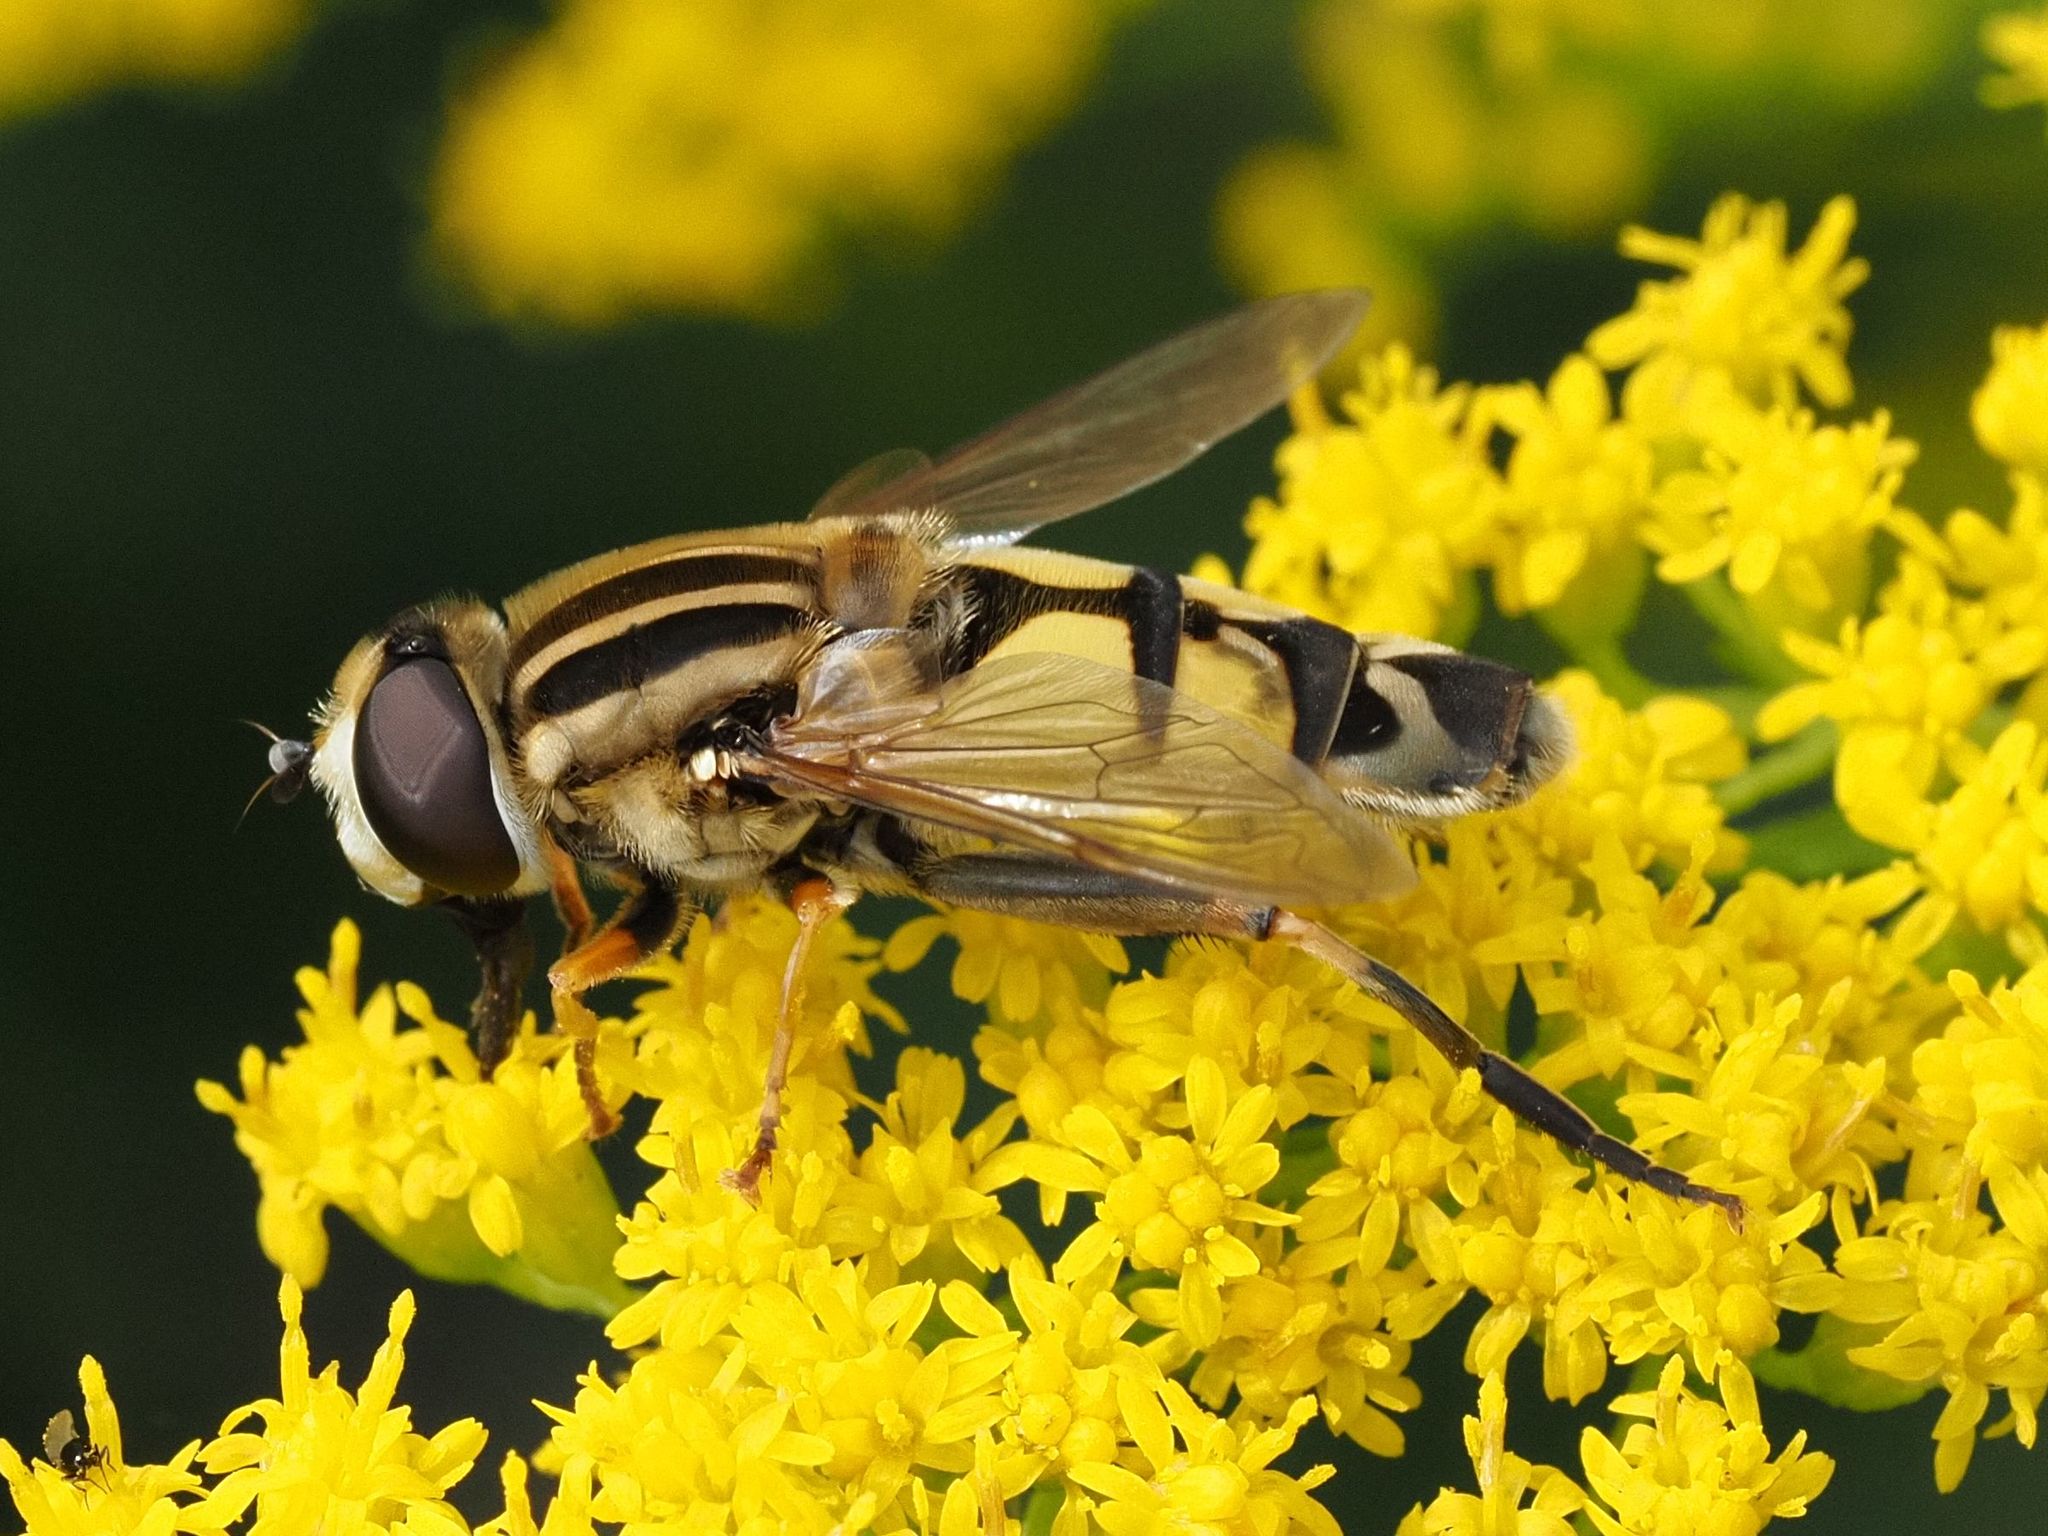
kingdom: Animalia
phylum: Arthropoda
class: Insecta
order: Diptera
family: Syrphidae
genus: Helophilus
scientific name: Helophilus trivittatus
